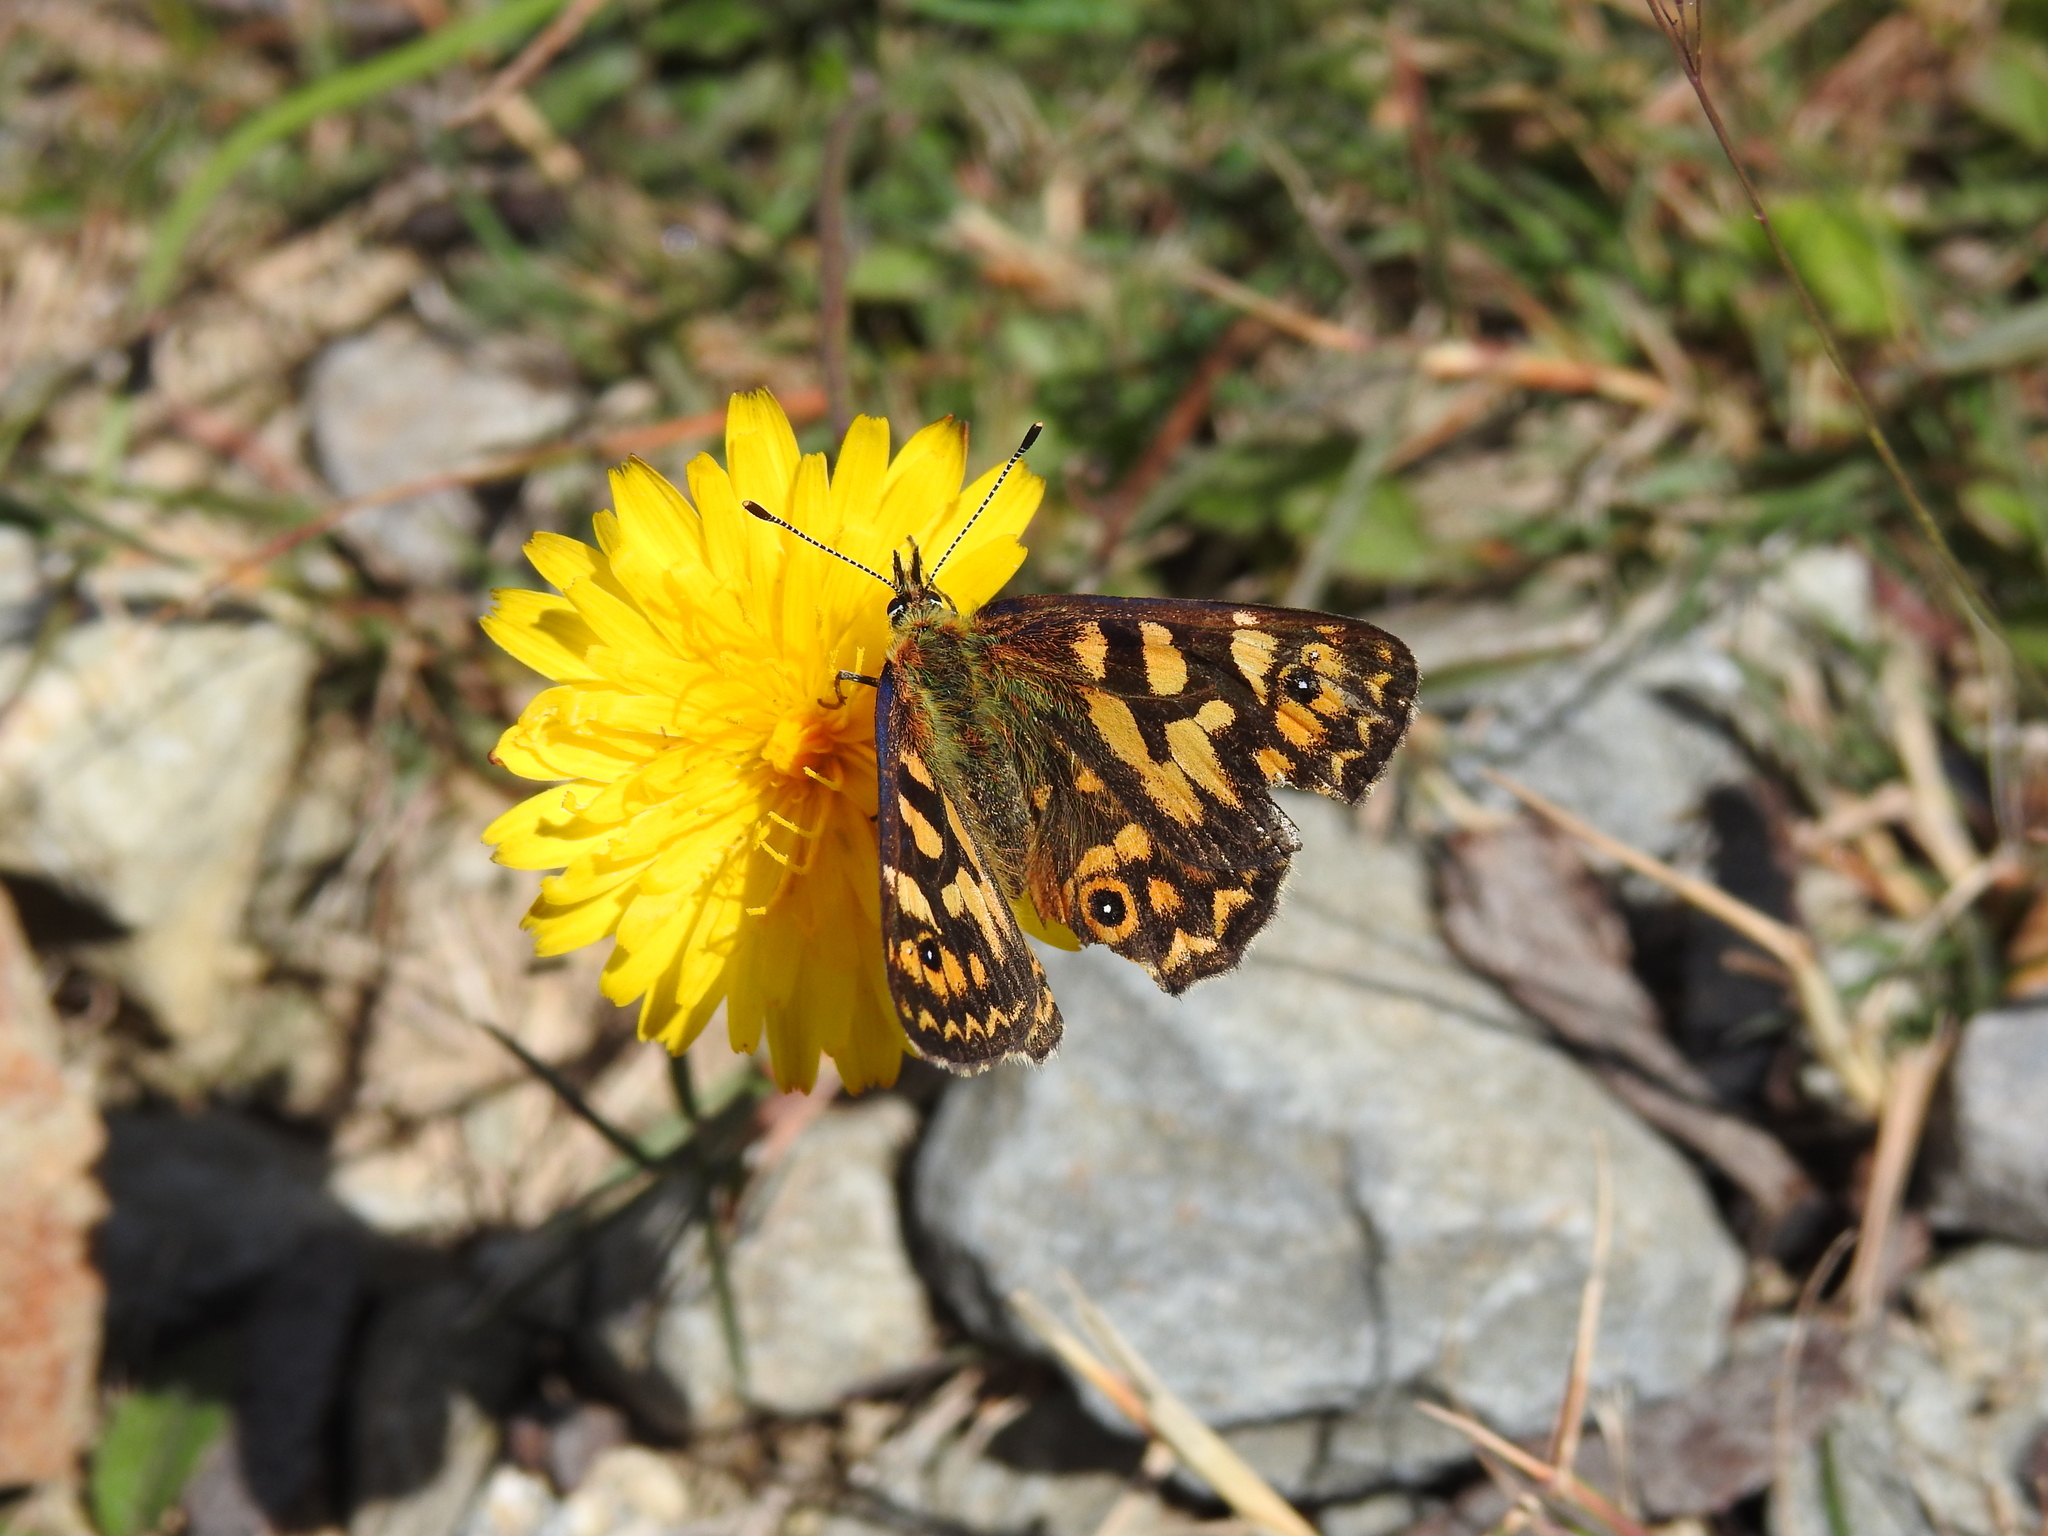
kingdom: Animalia
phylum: Arthropoda
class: Insecta
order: Lepidoptera
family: Nymphalidae
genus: Oreixenica
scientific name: Oreixenica lathoniella
